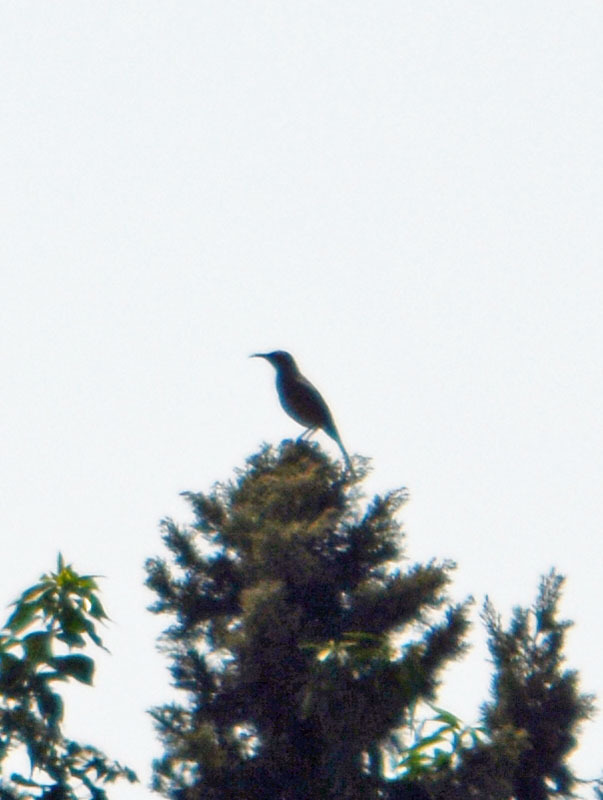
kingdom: Animalia
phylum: Chordata
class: Aves
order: Passeriformes
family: Mimidae
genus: Toxostoma
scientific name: Toxostoma curvirostre
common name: Curve-billed thrasher
